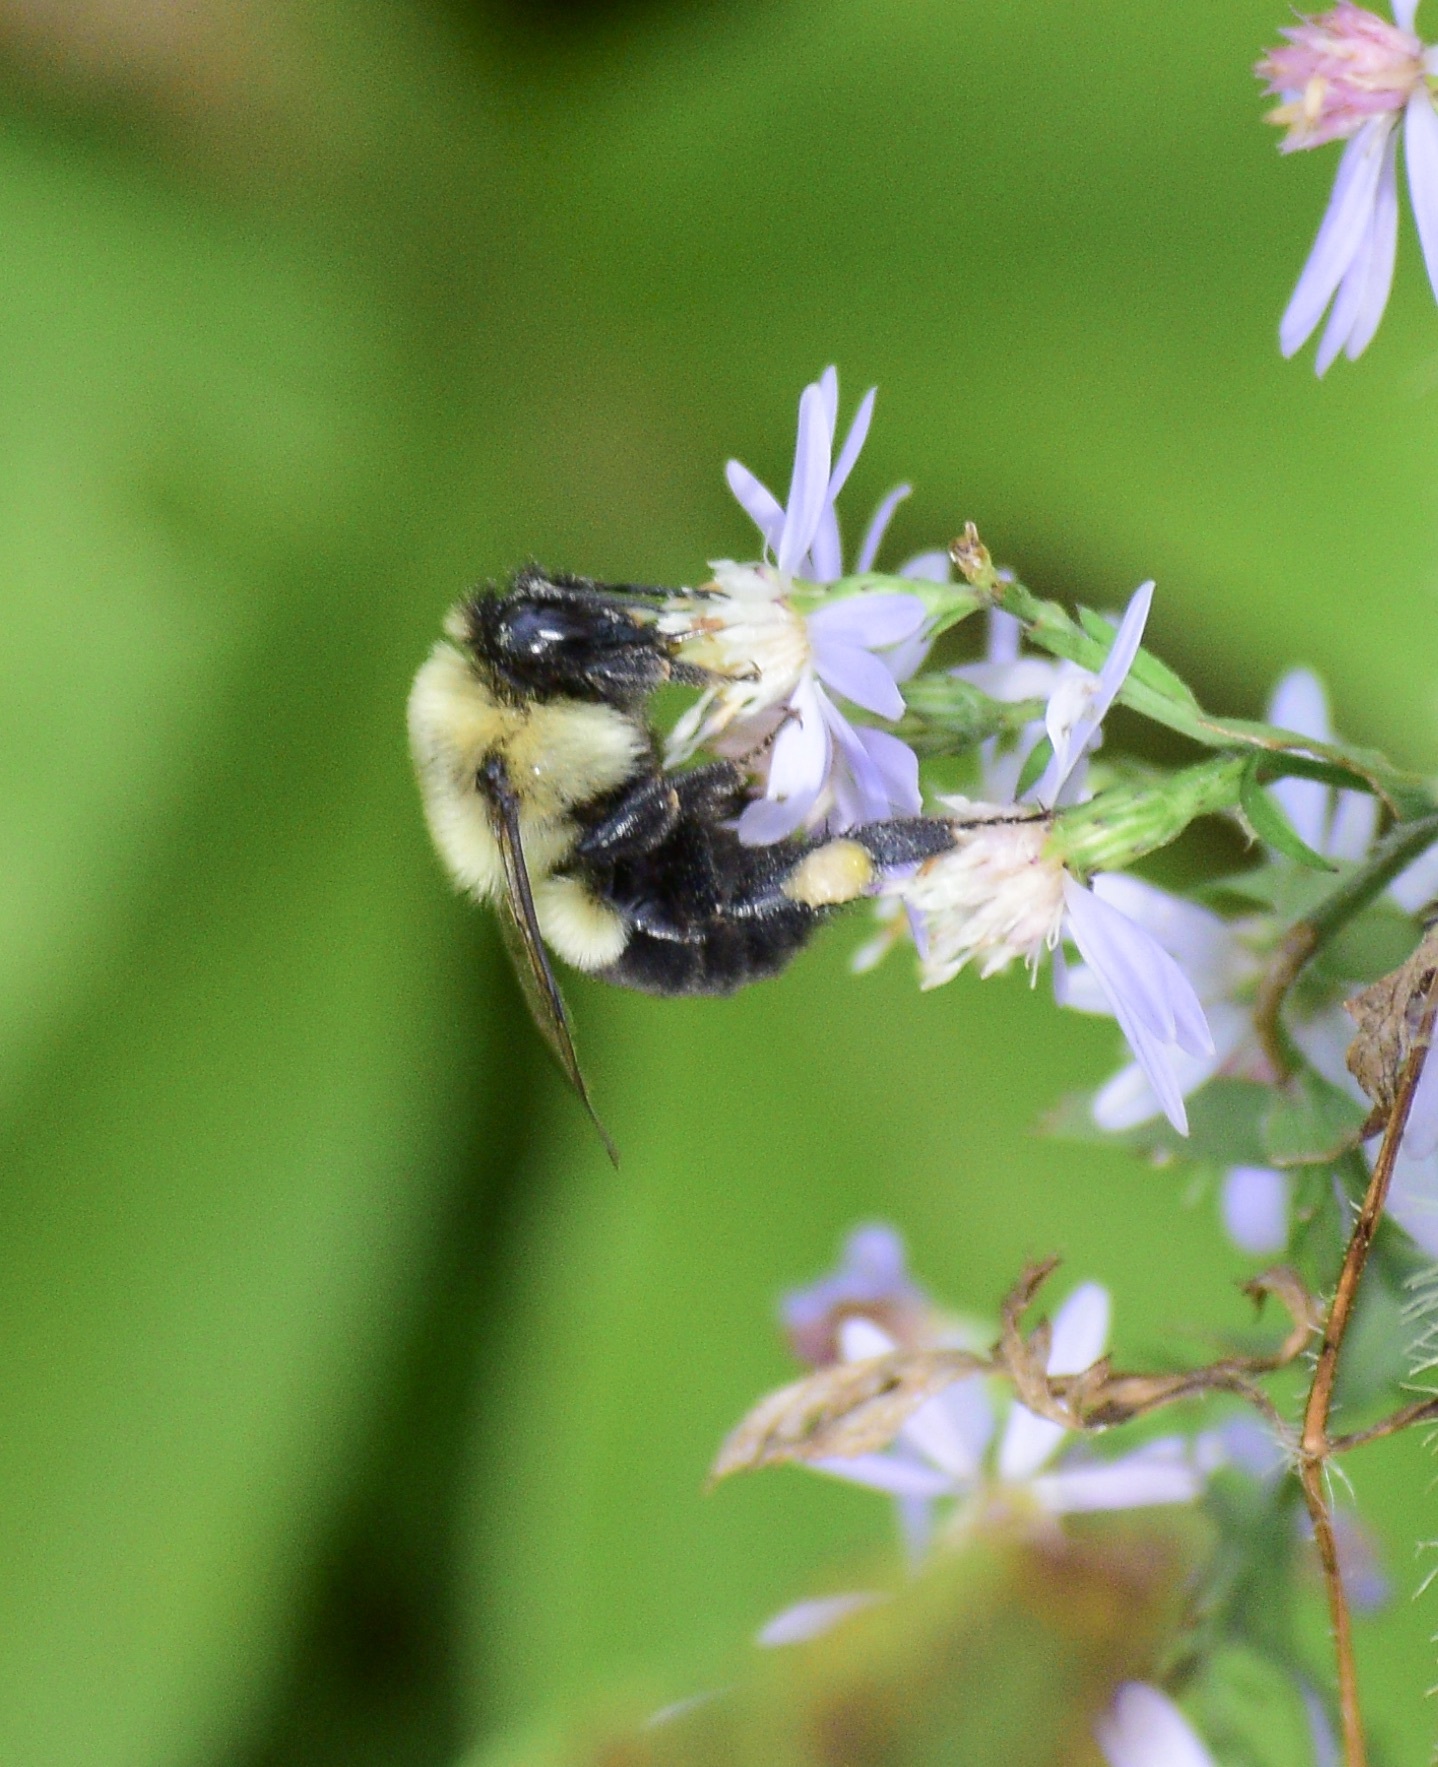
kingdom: Animalia
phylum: Arthropoda
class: Insecta
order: Hymenoptera
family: Apidae
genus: Bombus
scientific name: Bombus impatiens
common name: Common eastern bumble bee
